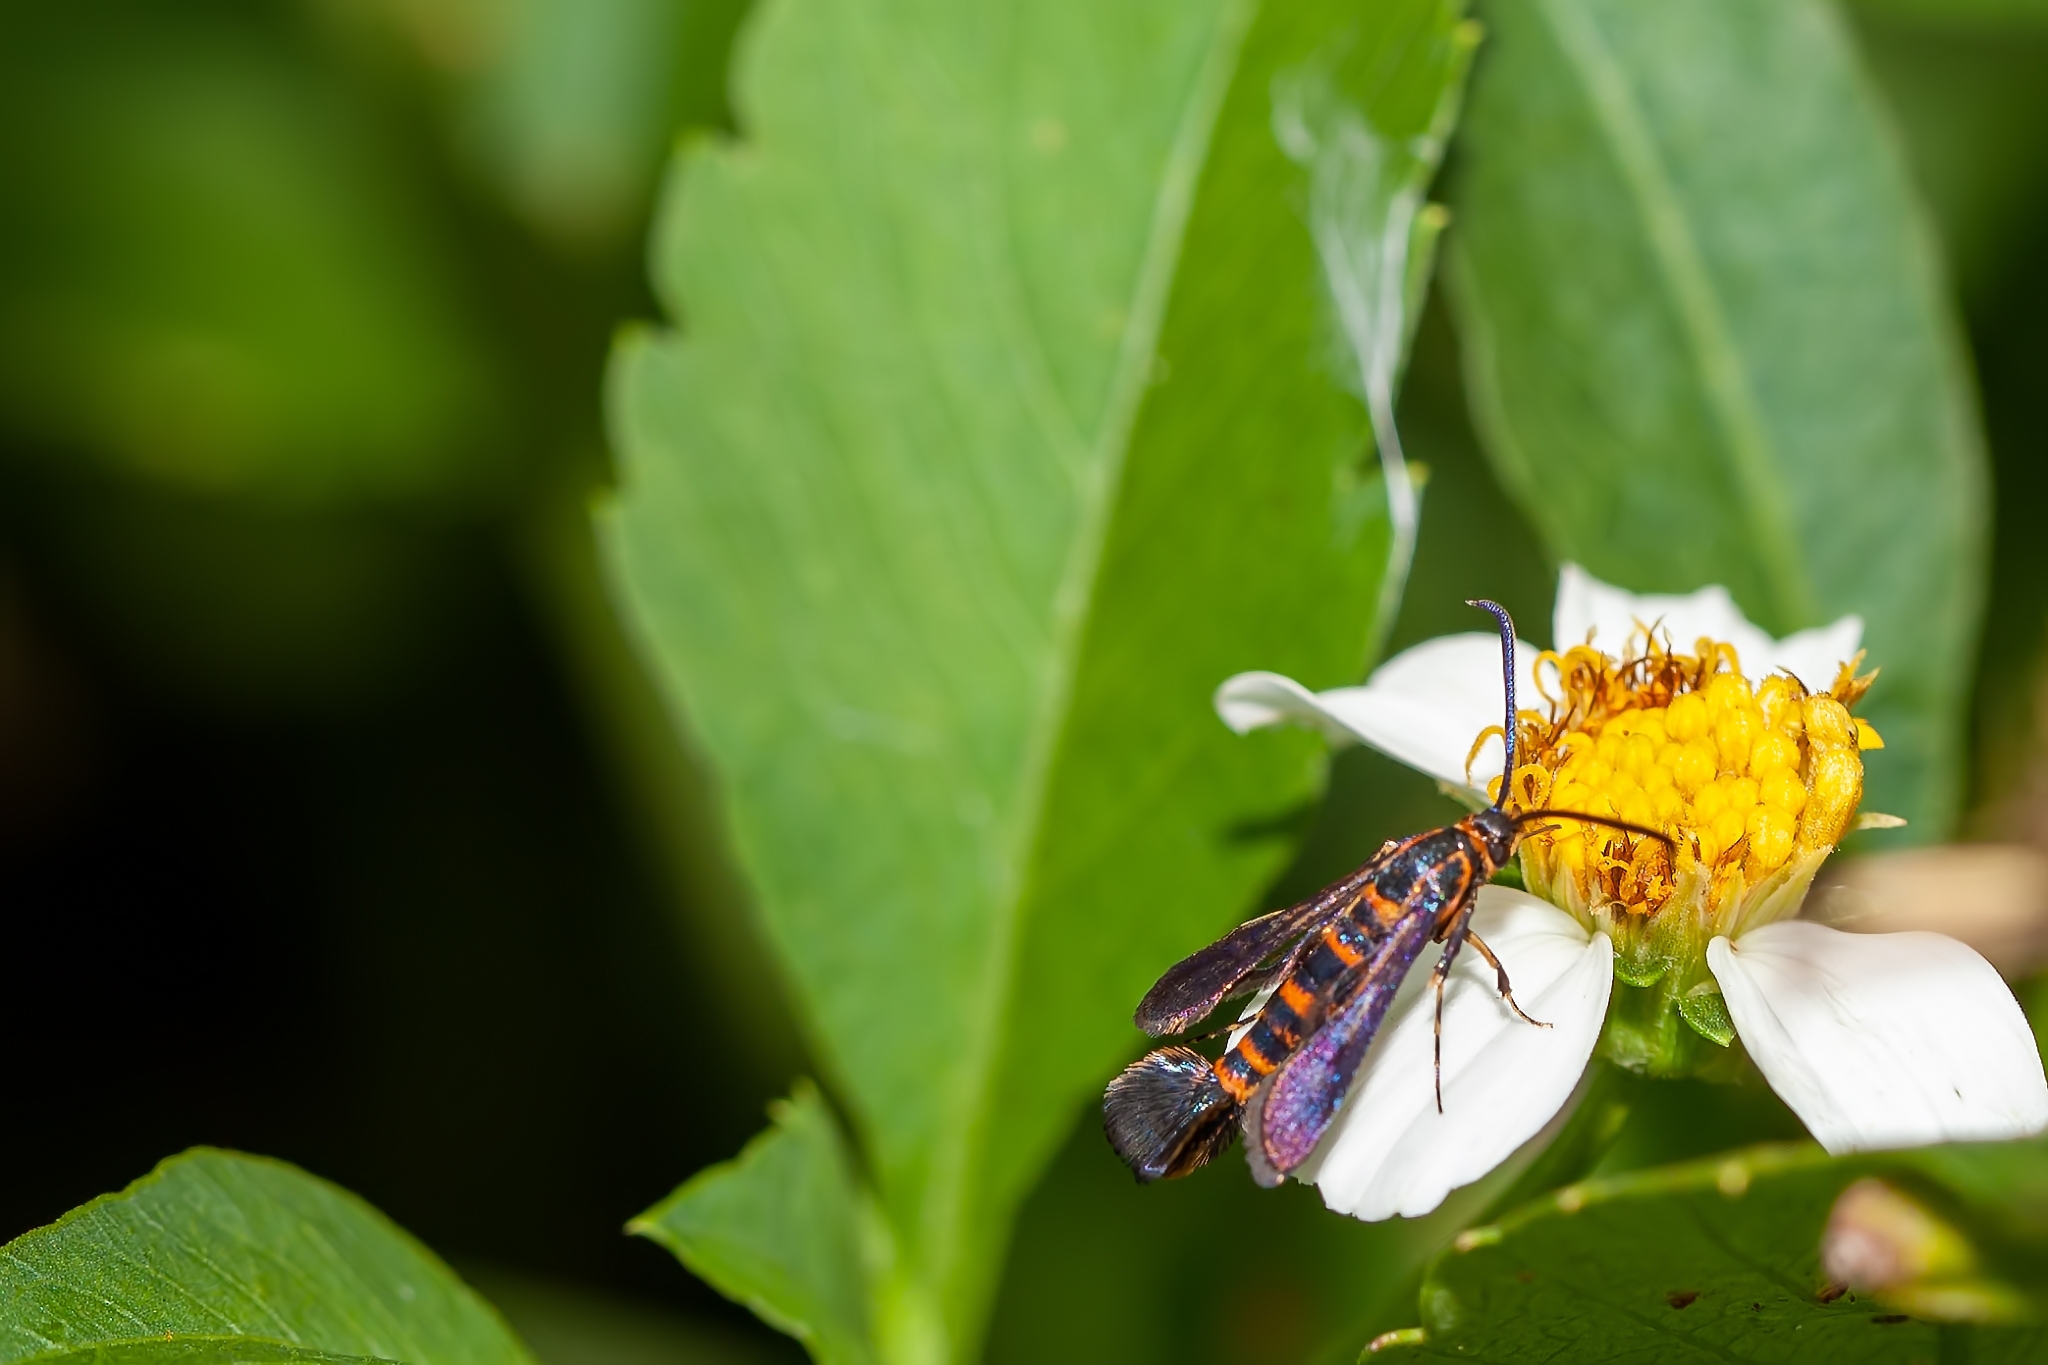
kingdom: Animalia
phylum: Arthropoda
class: Insecta
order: Lepidoptera
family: Sesiidae
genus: Carmenta
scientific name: Carmenta texana
